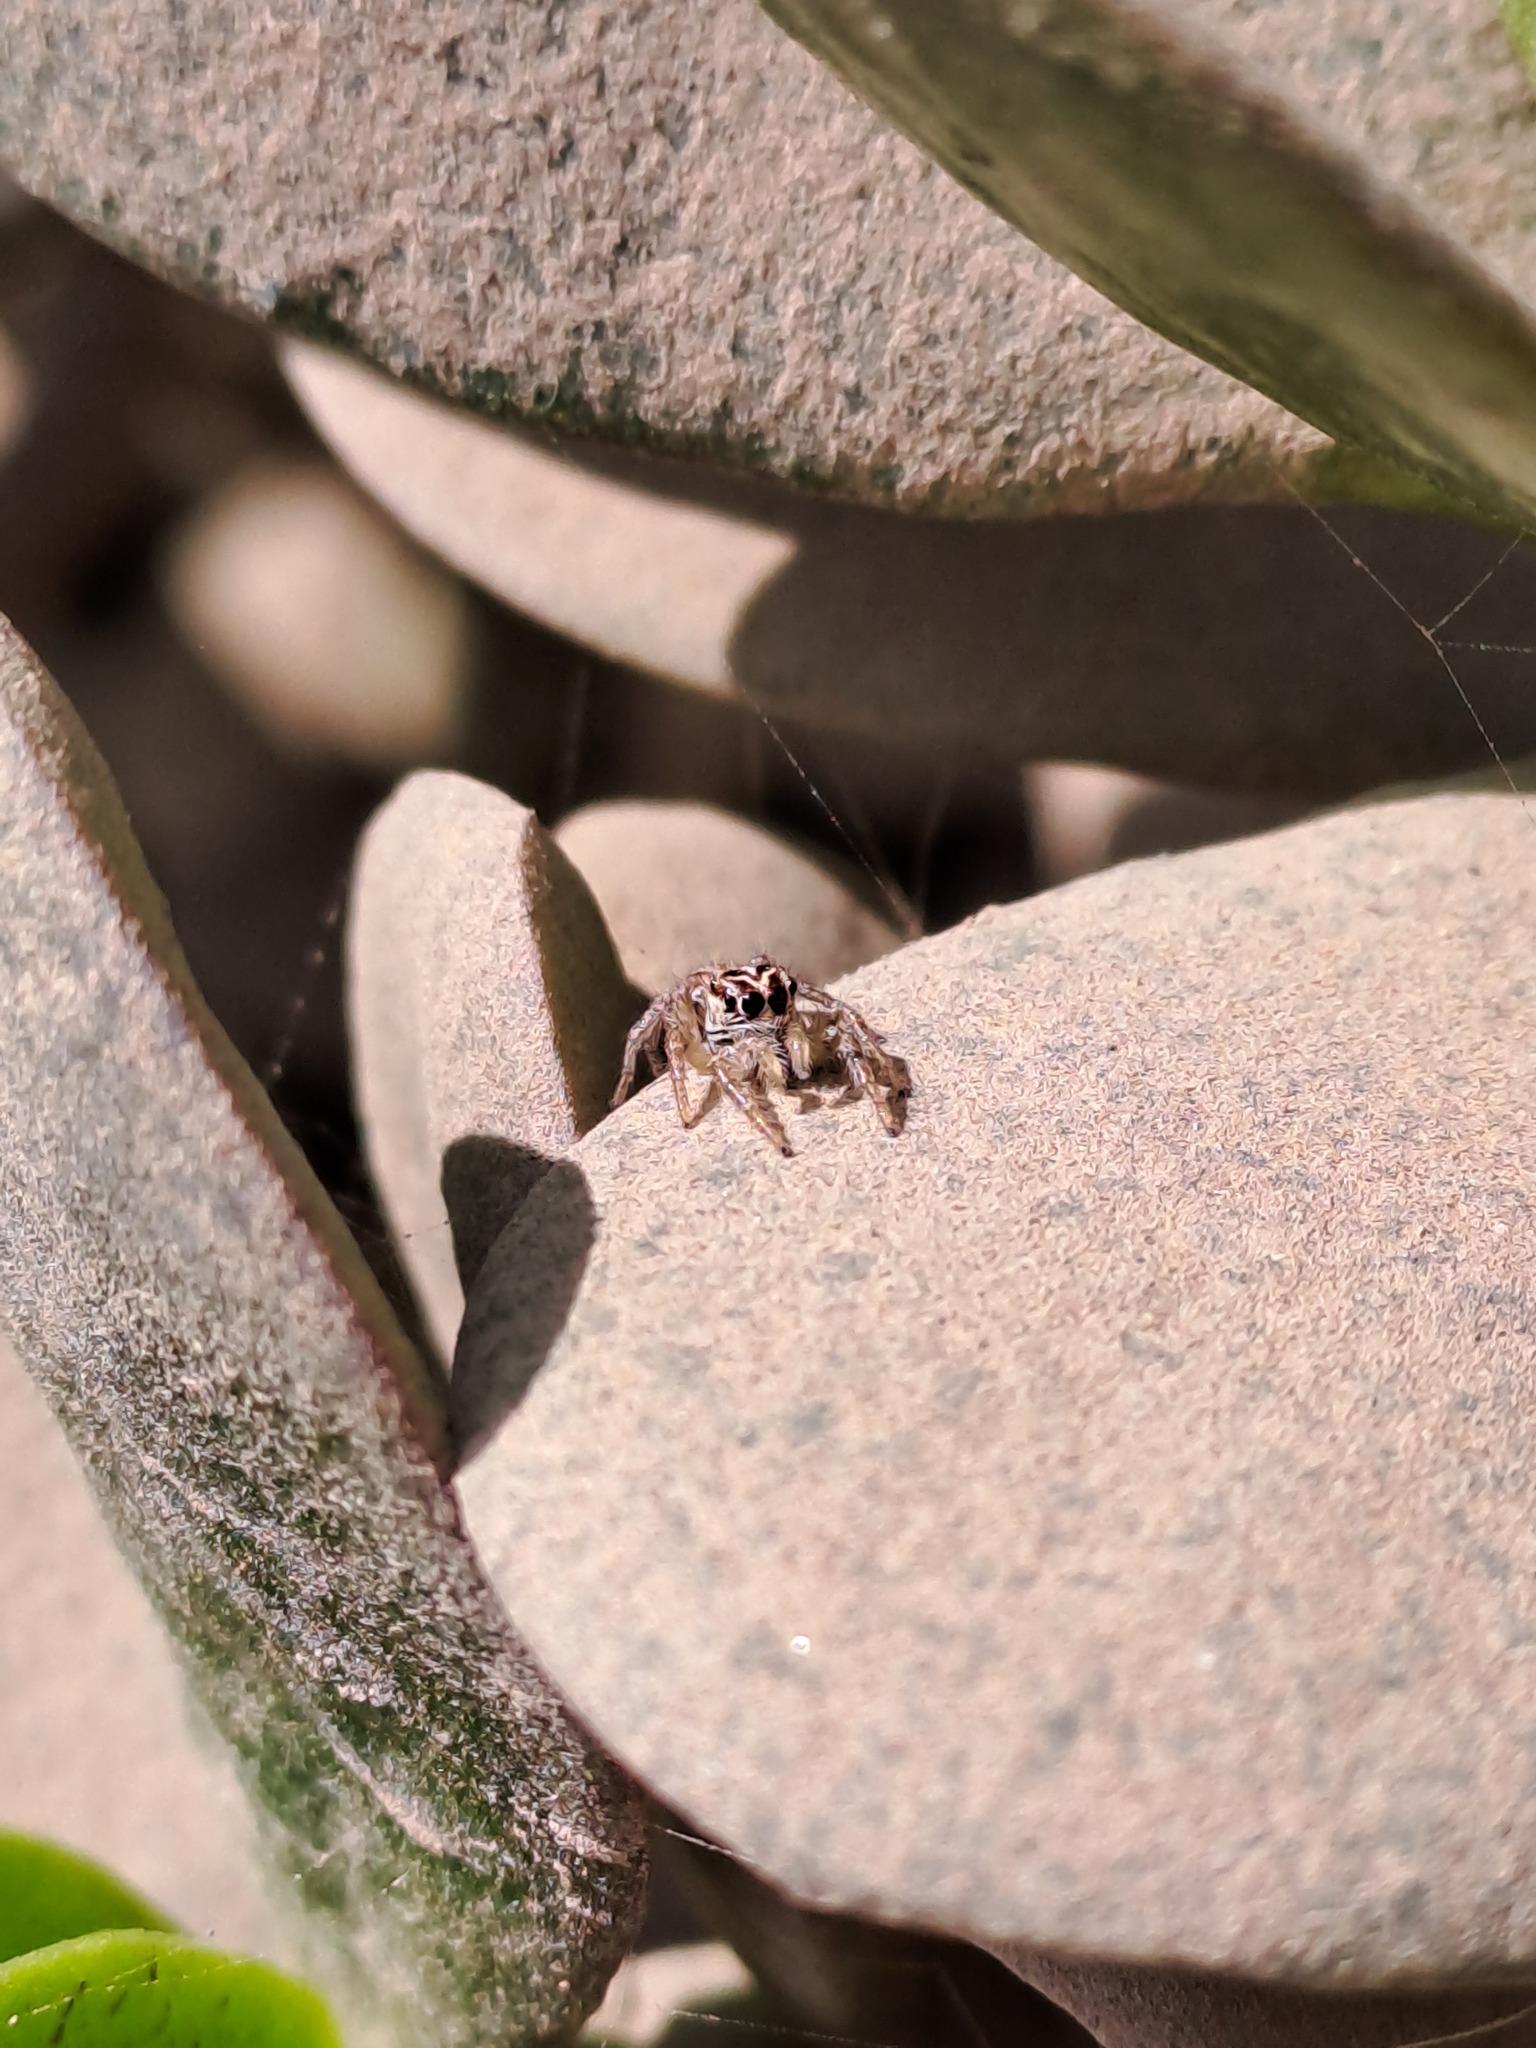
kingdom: Animalia
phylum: Arthropoda
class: Arachnida
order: Araneae
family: Salticidae
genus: Frigga
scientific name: Frigga crocuta
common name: Jumping spiders
